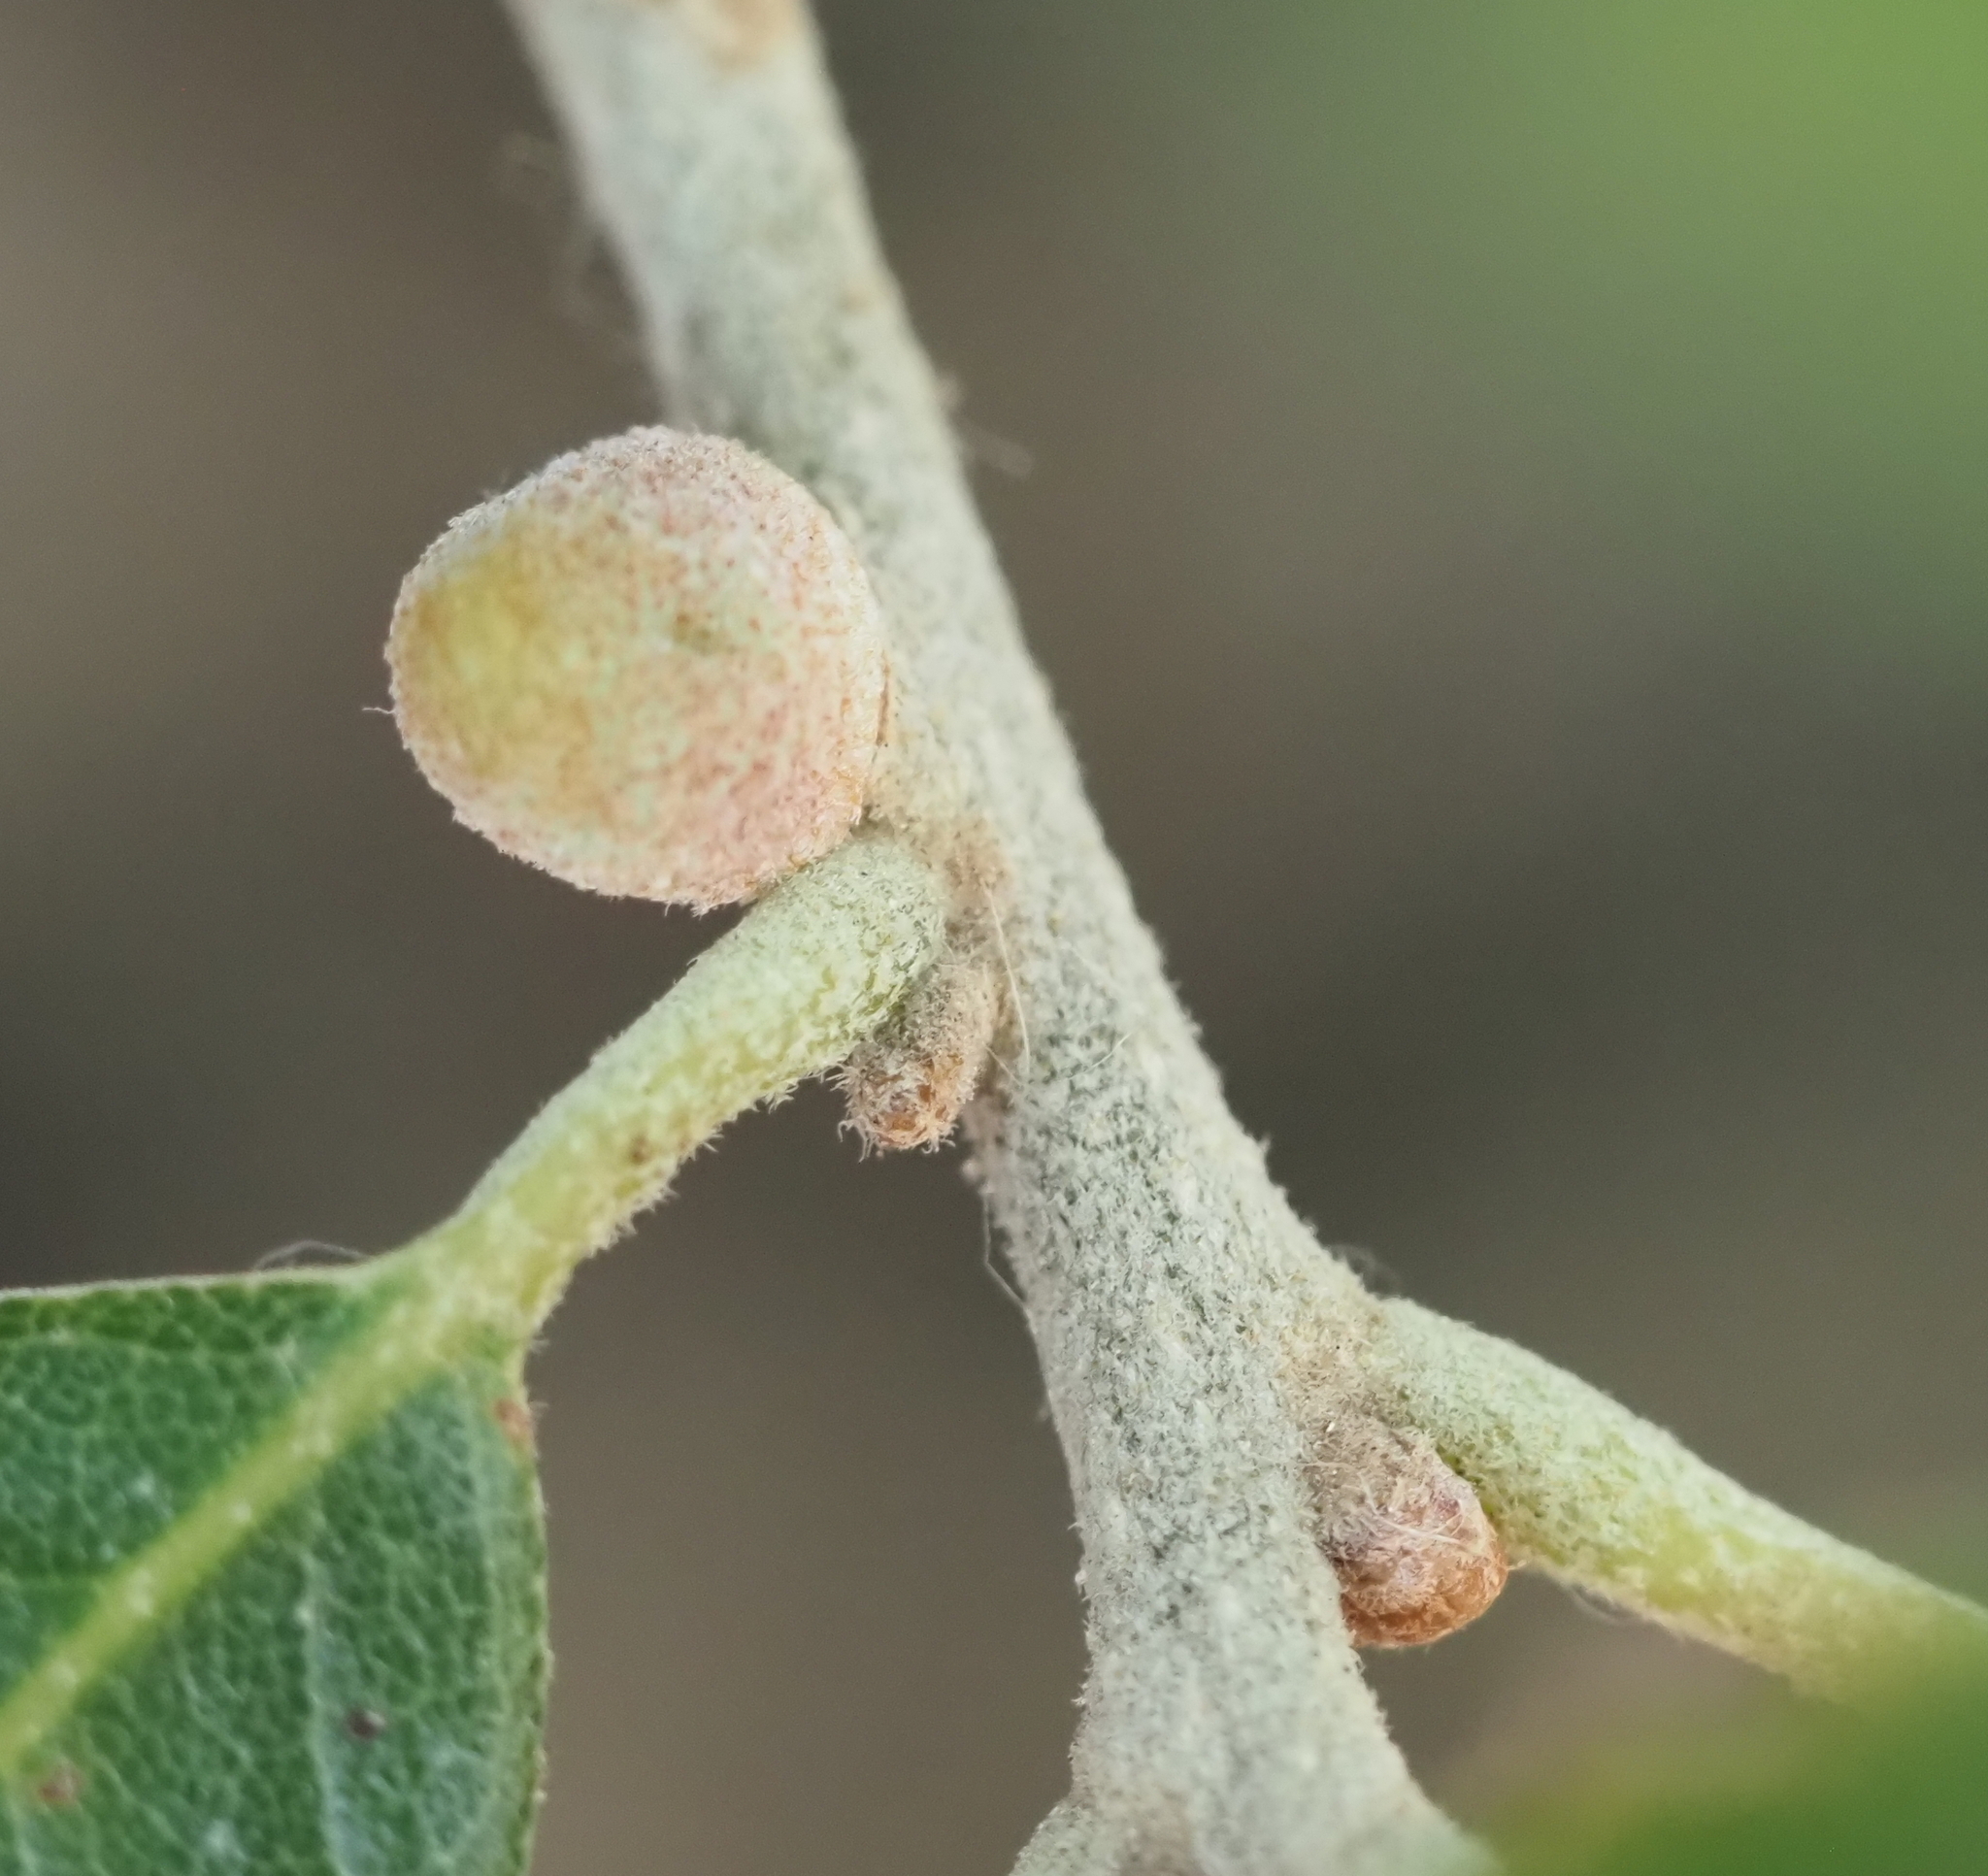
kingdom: Animalia
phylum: Arthropoda
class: Insecta
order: Hymenoptera
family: Cynipidae
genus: Disholcaspis
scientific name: Disholcaspis
